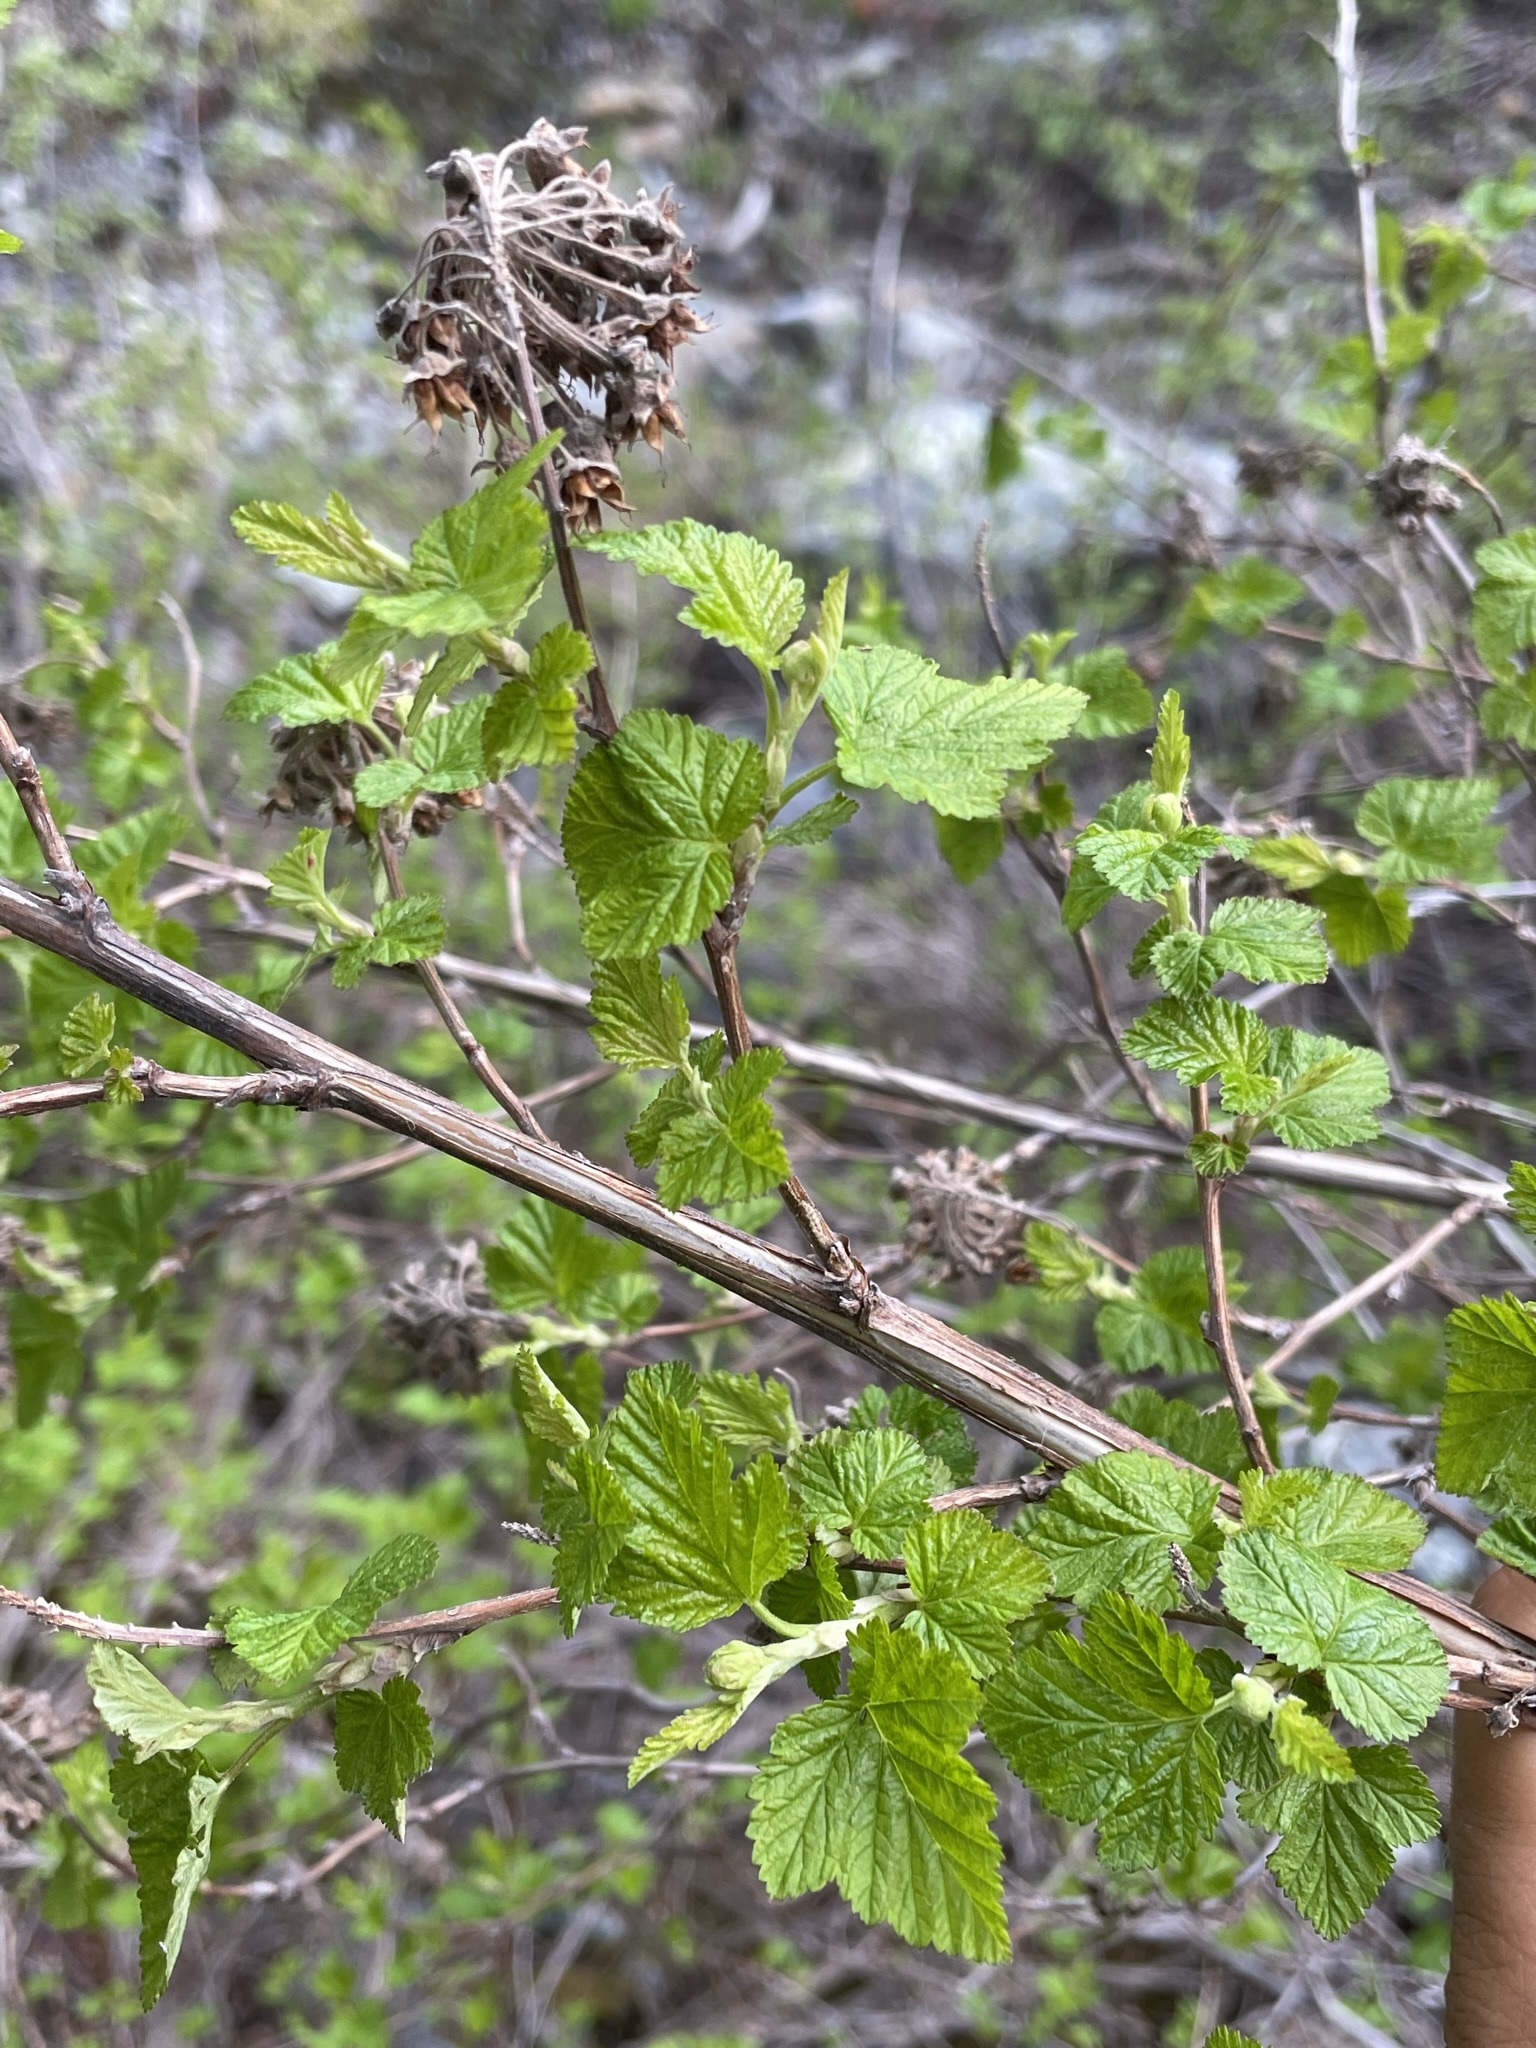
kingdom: Plantae
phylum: Tracheophyta
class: Magnoliopsida
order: Rosales
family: Rosaceae
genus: Physocarpus
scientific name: Physocarpus capitatus
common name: Pacific ninebark
